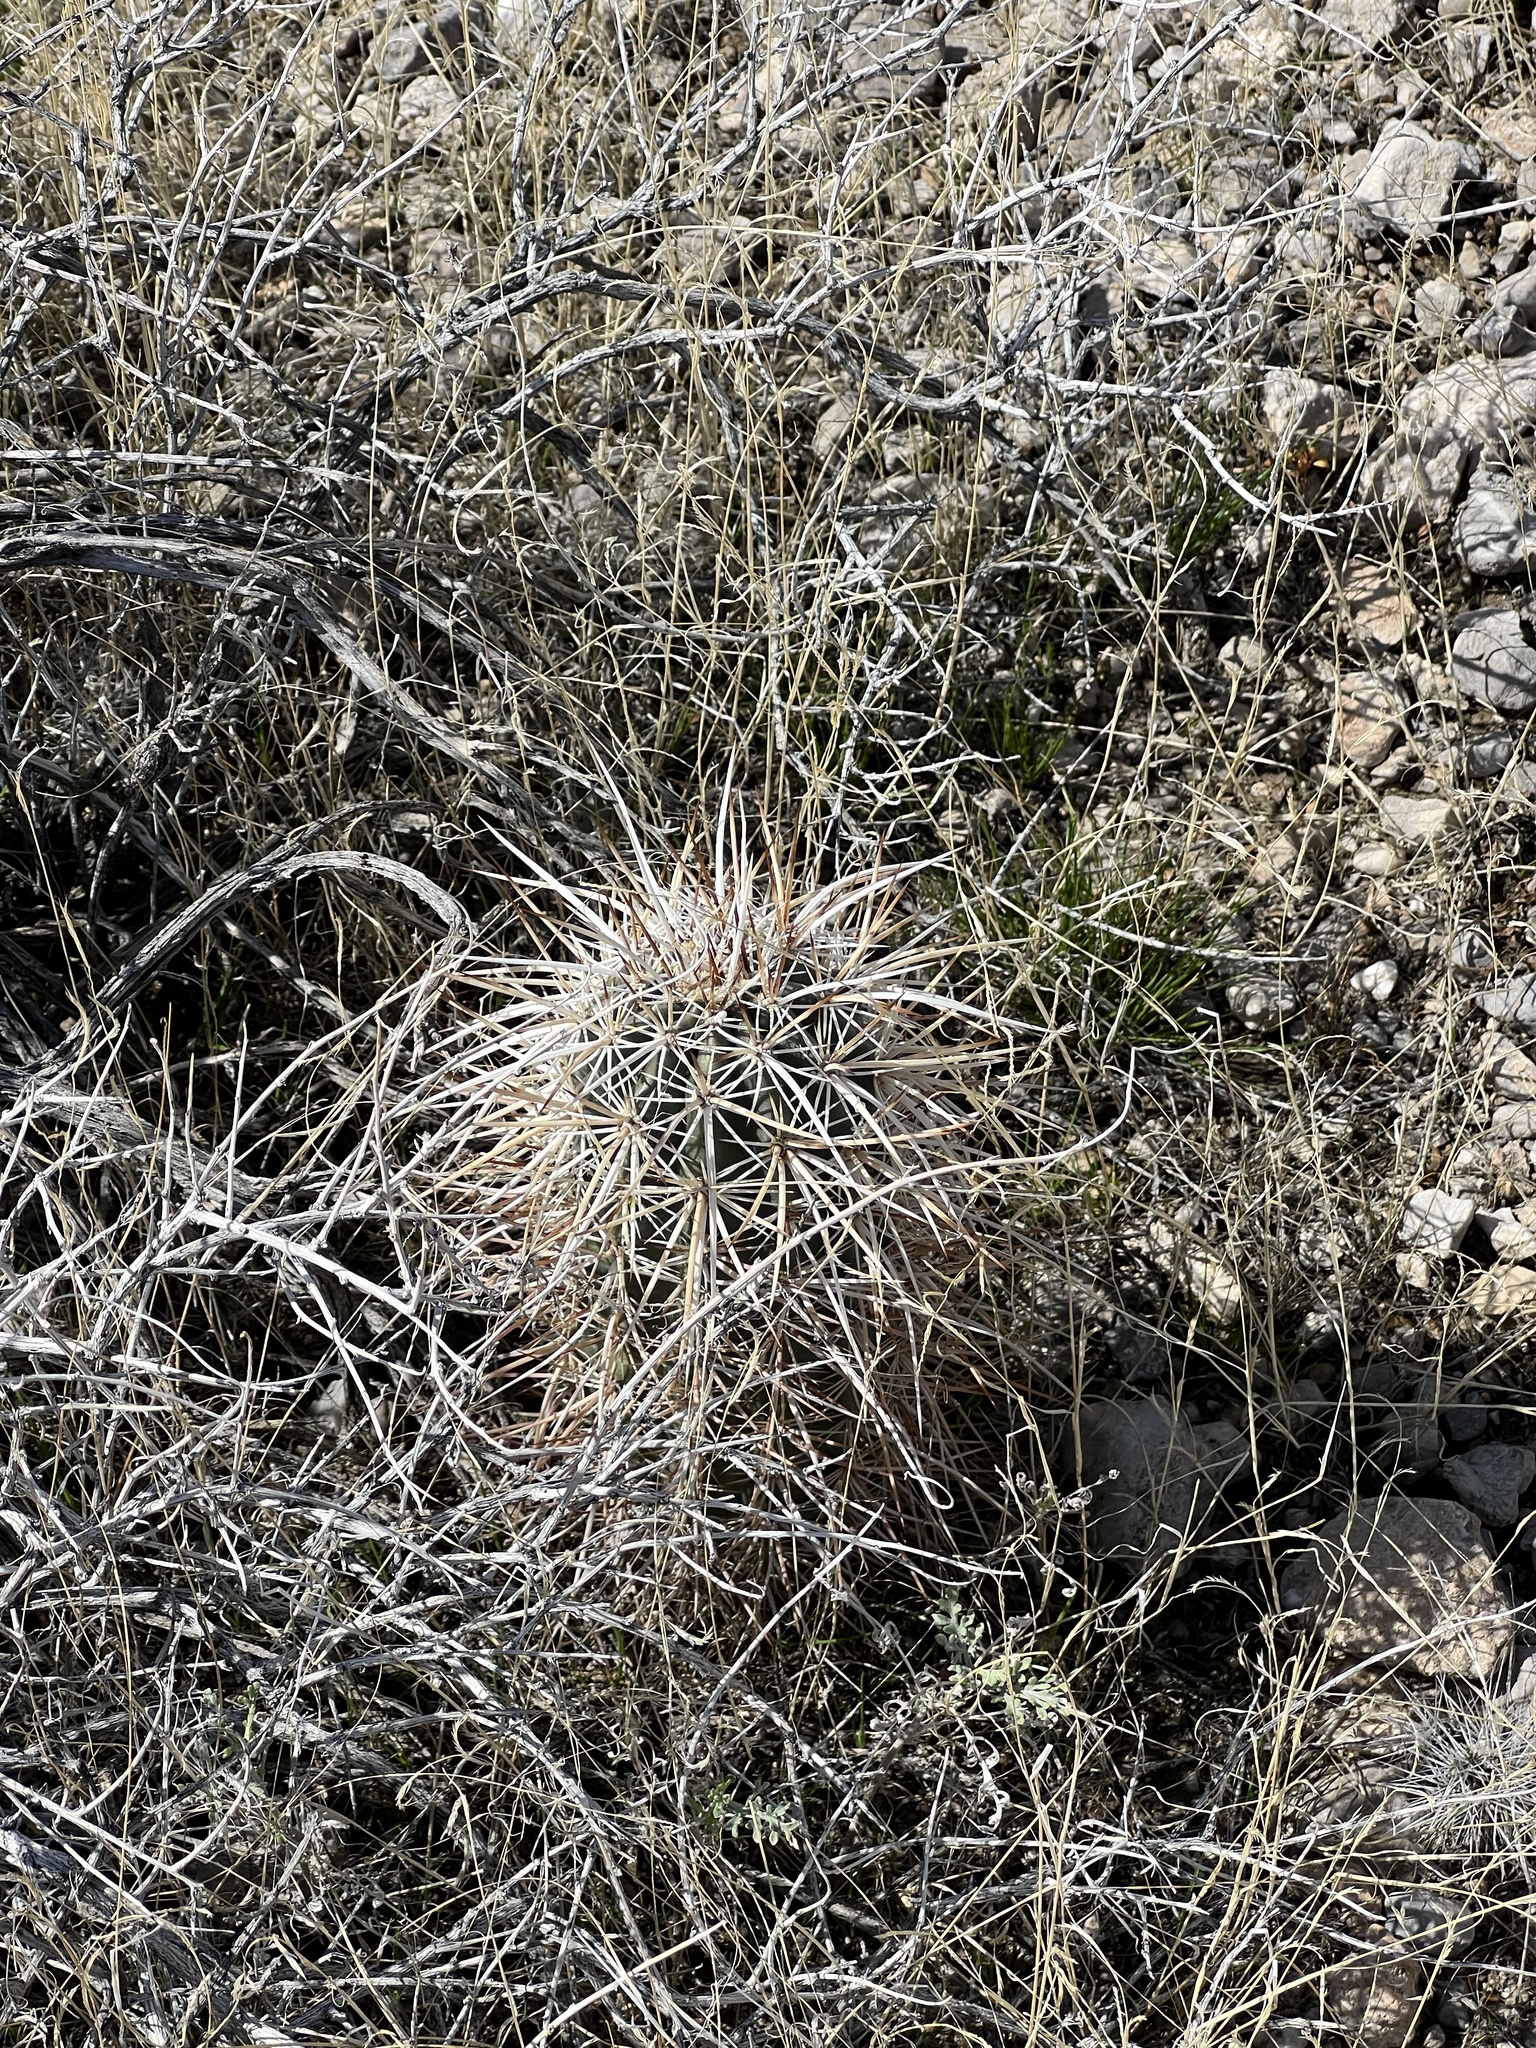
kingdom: Plantae
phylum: Tracheophyta
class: Magnoliopsida
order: Caryophyllales
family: Cactaceae
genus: Echinocereus
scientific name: Echinocereus engelmannii
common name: Engelmann's hedgehog cactus
